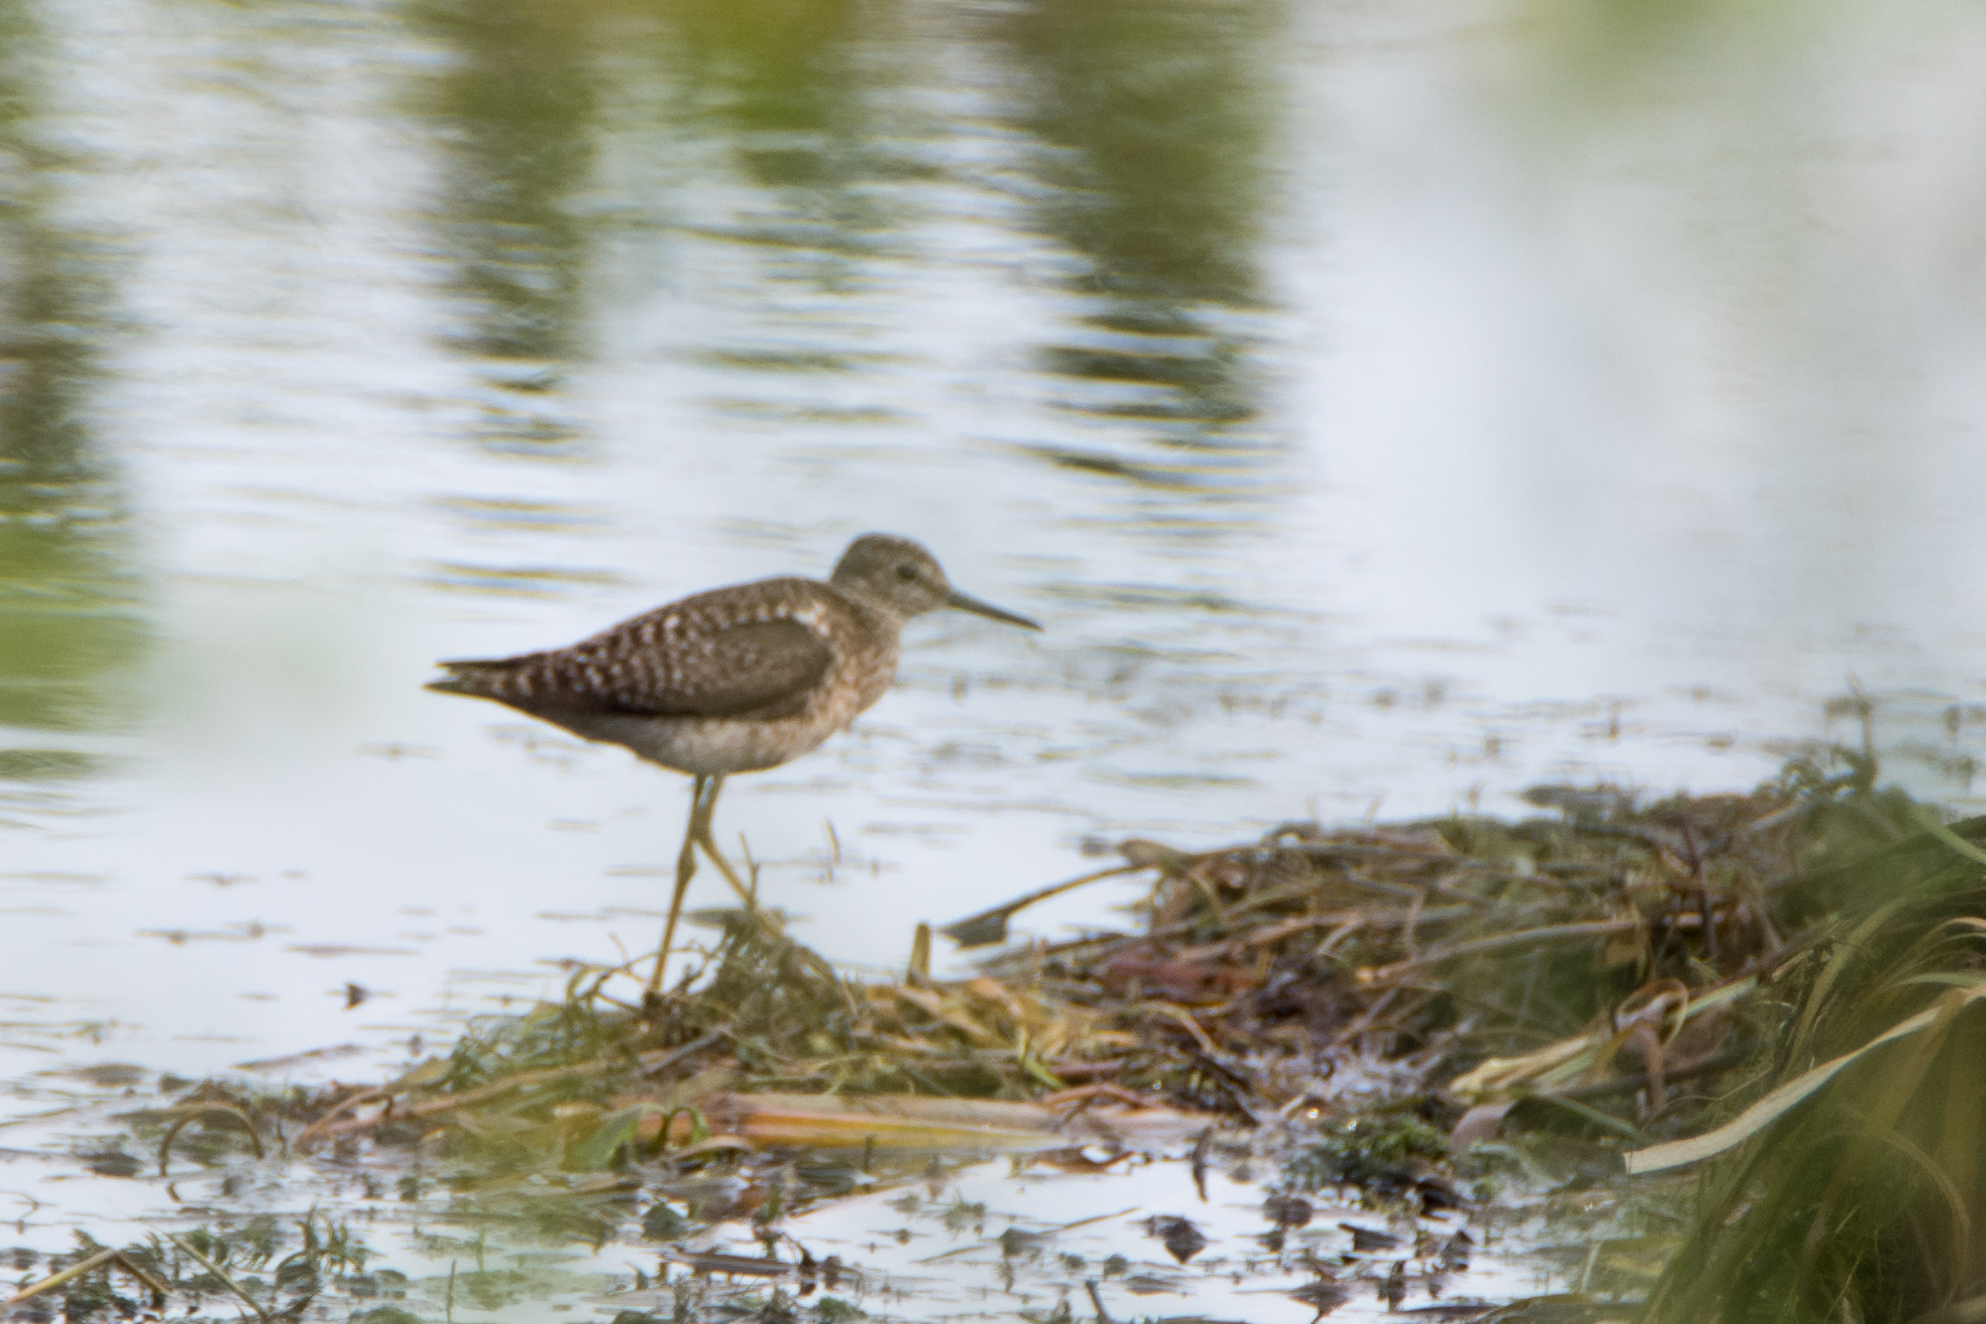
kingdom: Animalia
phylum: Chordata
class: Aves
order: Charadriiformes
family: Scolopacidae
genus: Tringa
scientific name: Tringa glareola
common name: Wood sandpiper
